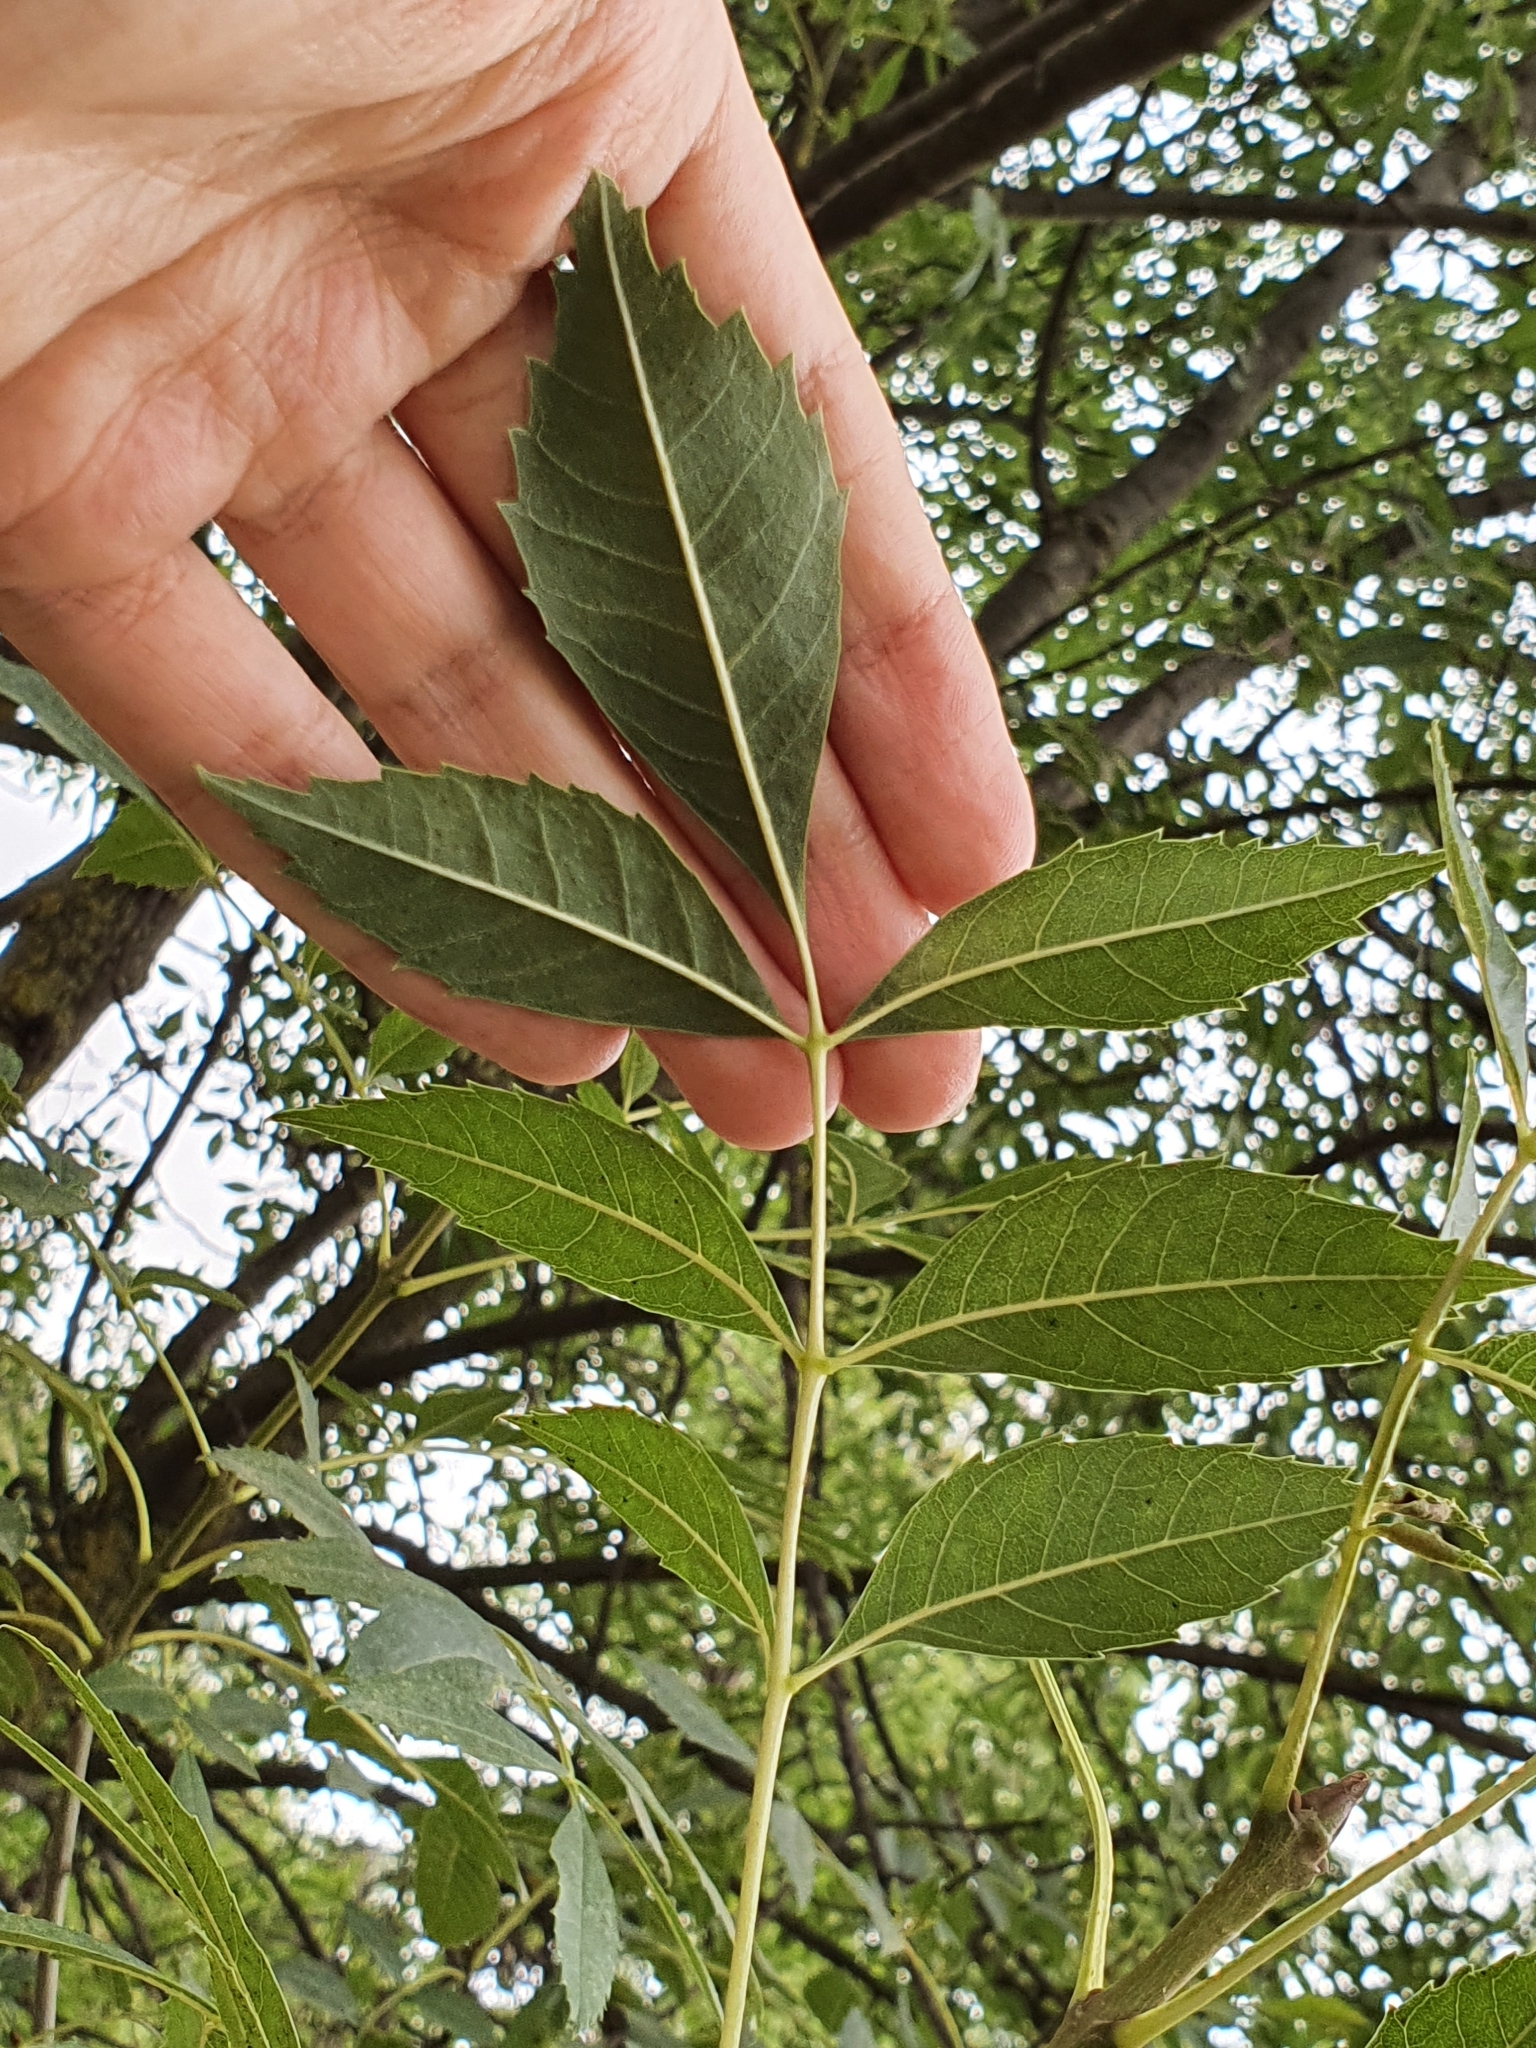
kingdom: Plantae
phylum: Tracheophyta
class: Magnoliopsida
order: Lamiales
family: Oleaceae
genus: Fraxinus
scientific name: Fraxinus angustifolia
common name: Narrow-leafed ash
